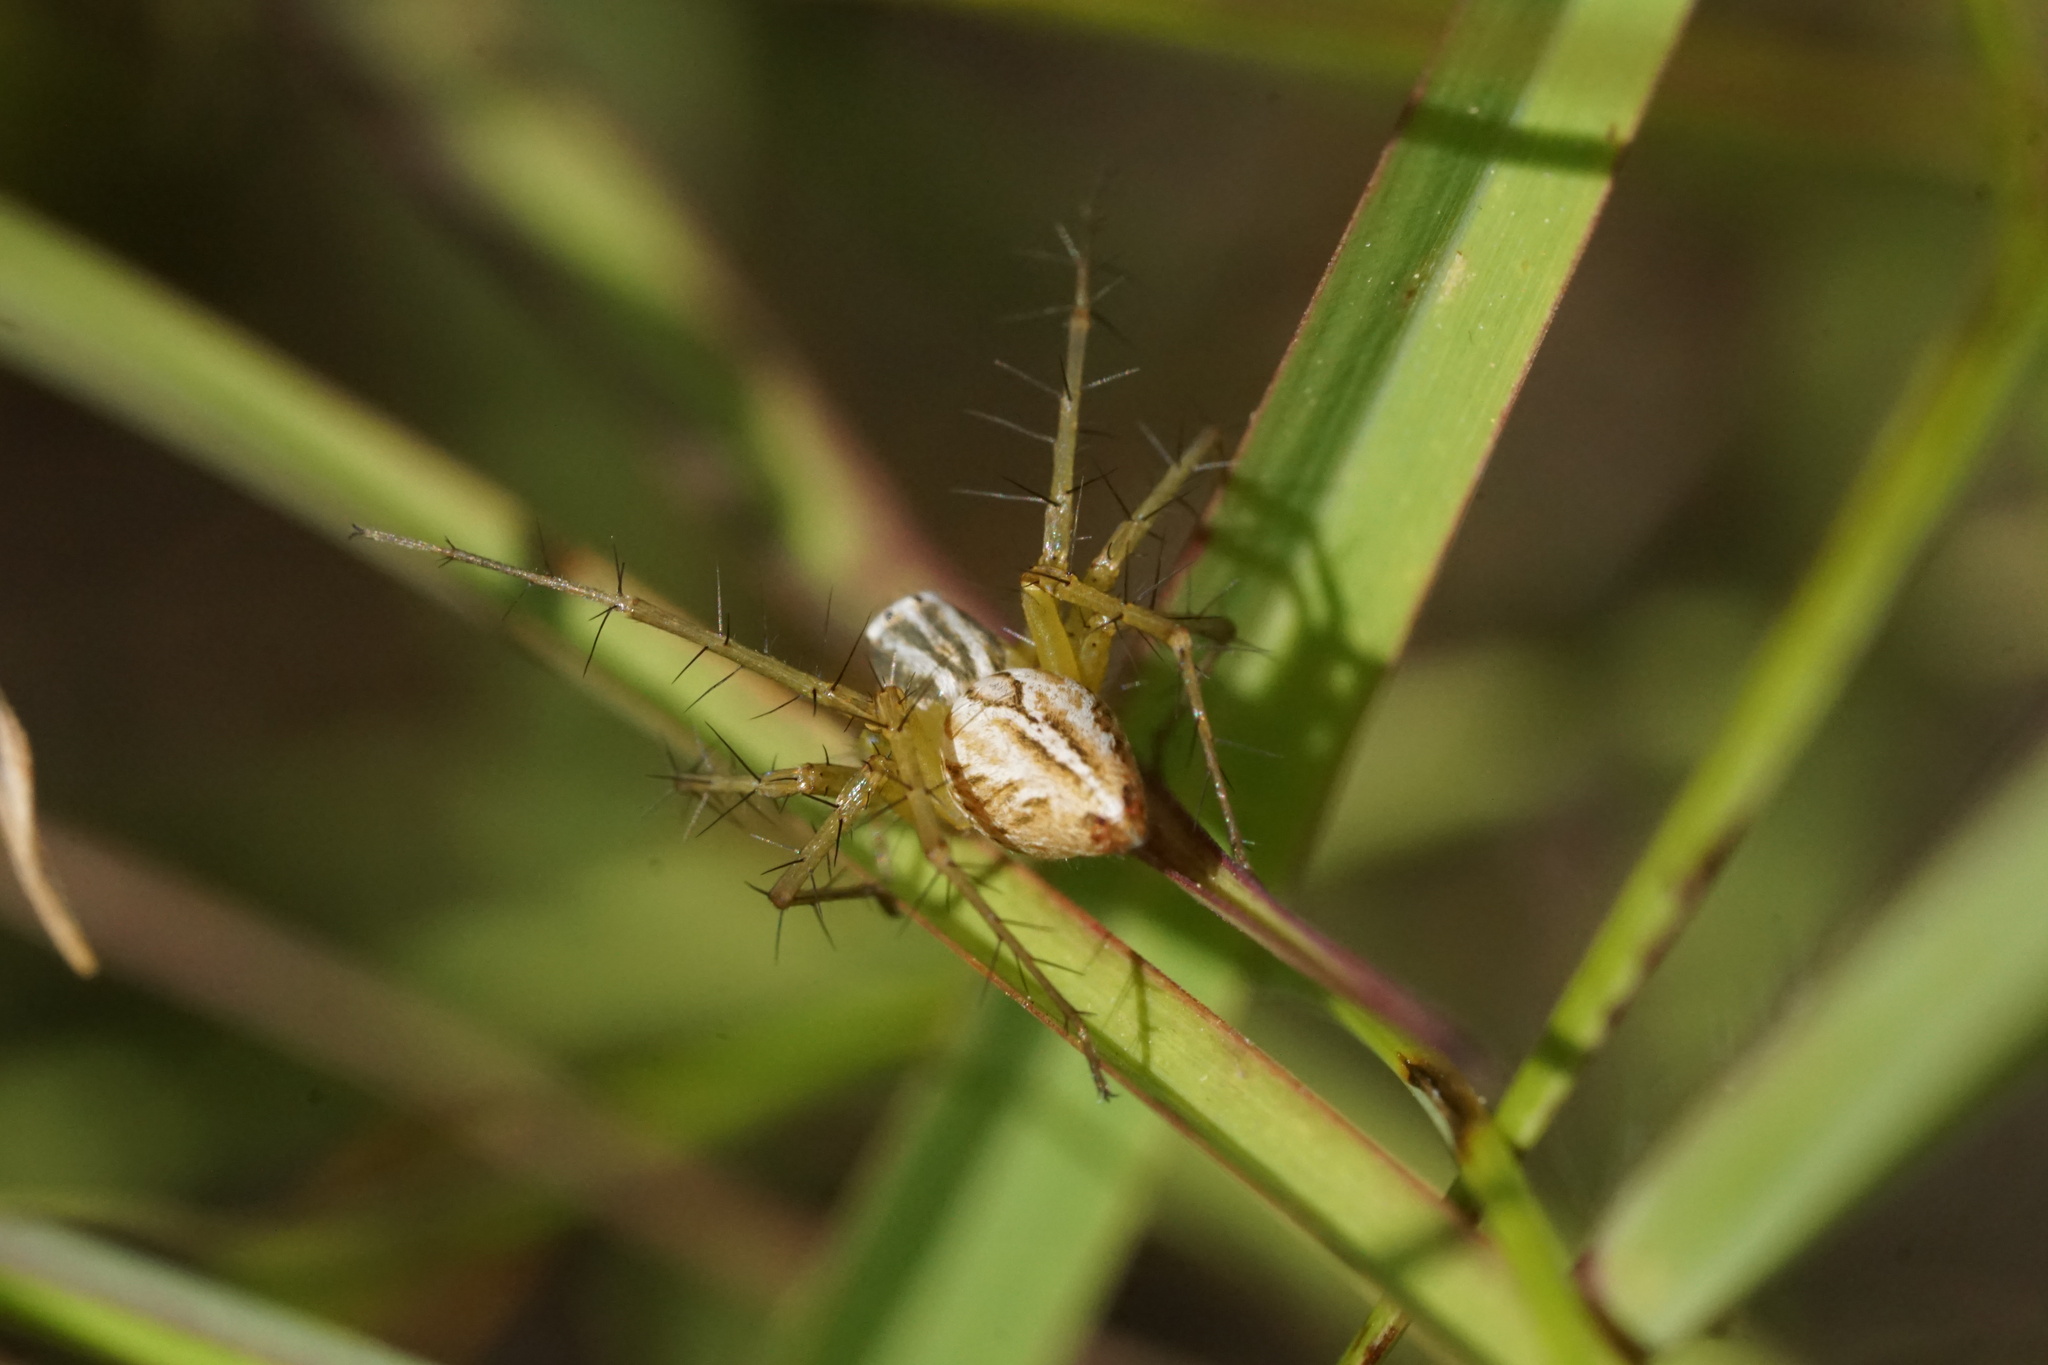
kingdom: Animalia
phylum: Arthropoda
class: Arachnida
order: Araneae
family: Oxyopidae
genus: Oxyopes
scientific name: Oxyopes salticus
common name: Lynx spiders
